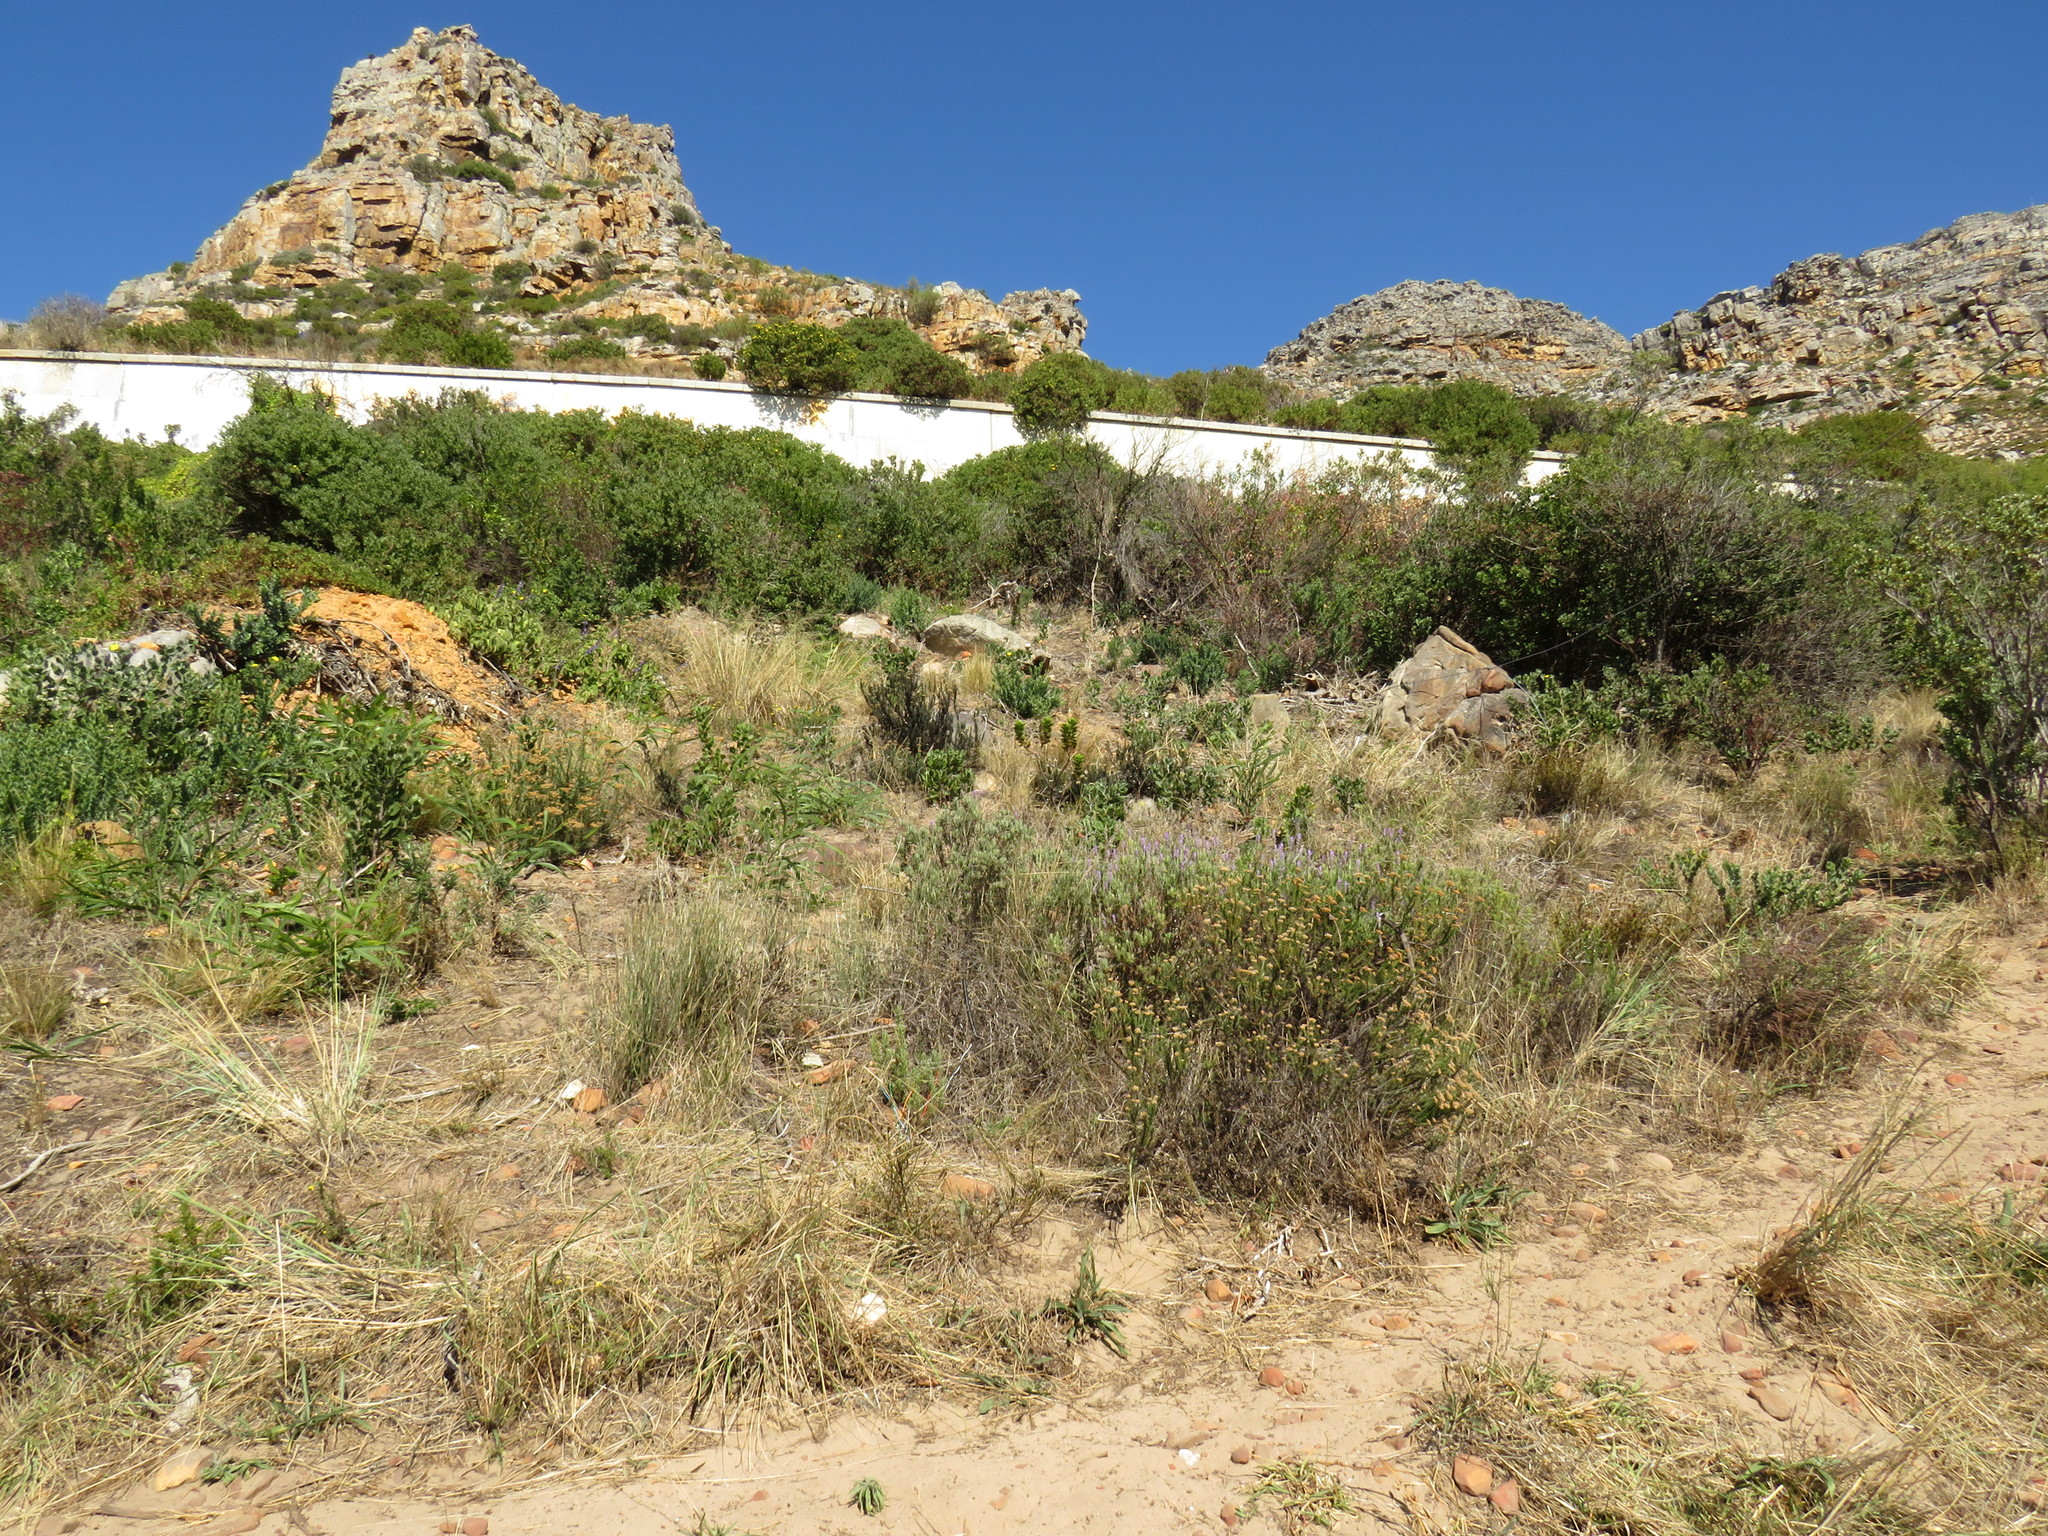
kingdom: Plantae
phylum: Tracheophyta
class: Magnoliopsida
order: Lamiales
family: Lamiaceae
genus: Coleus
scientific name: Coleus barbatus
